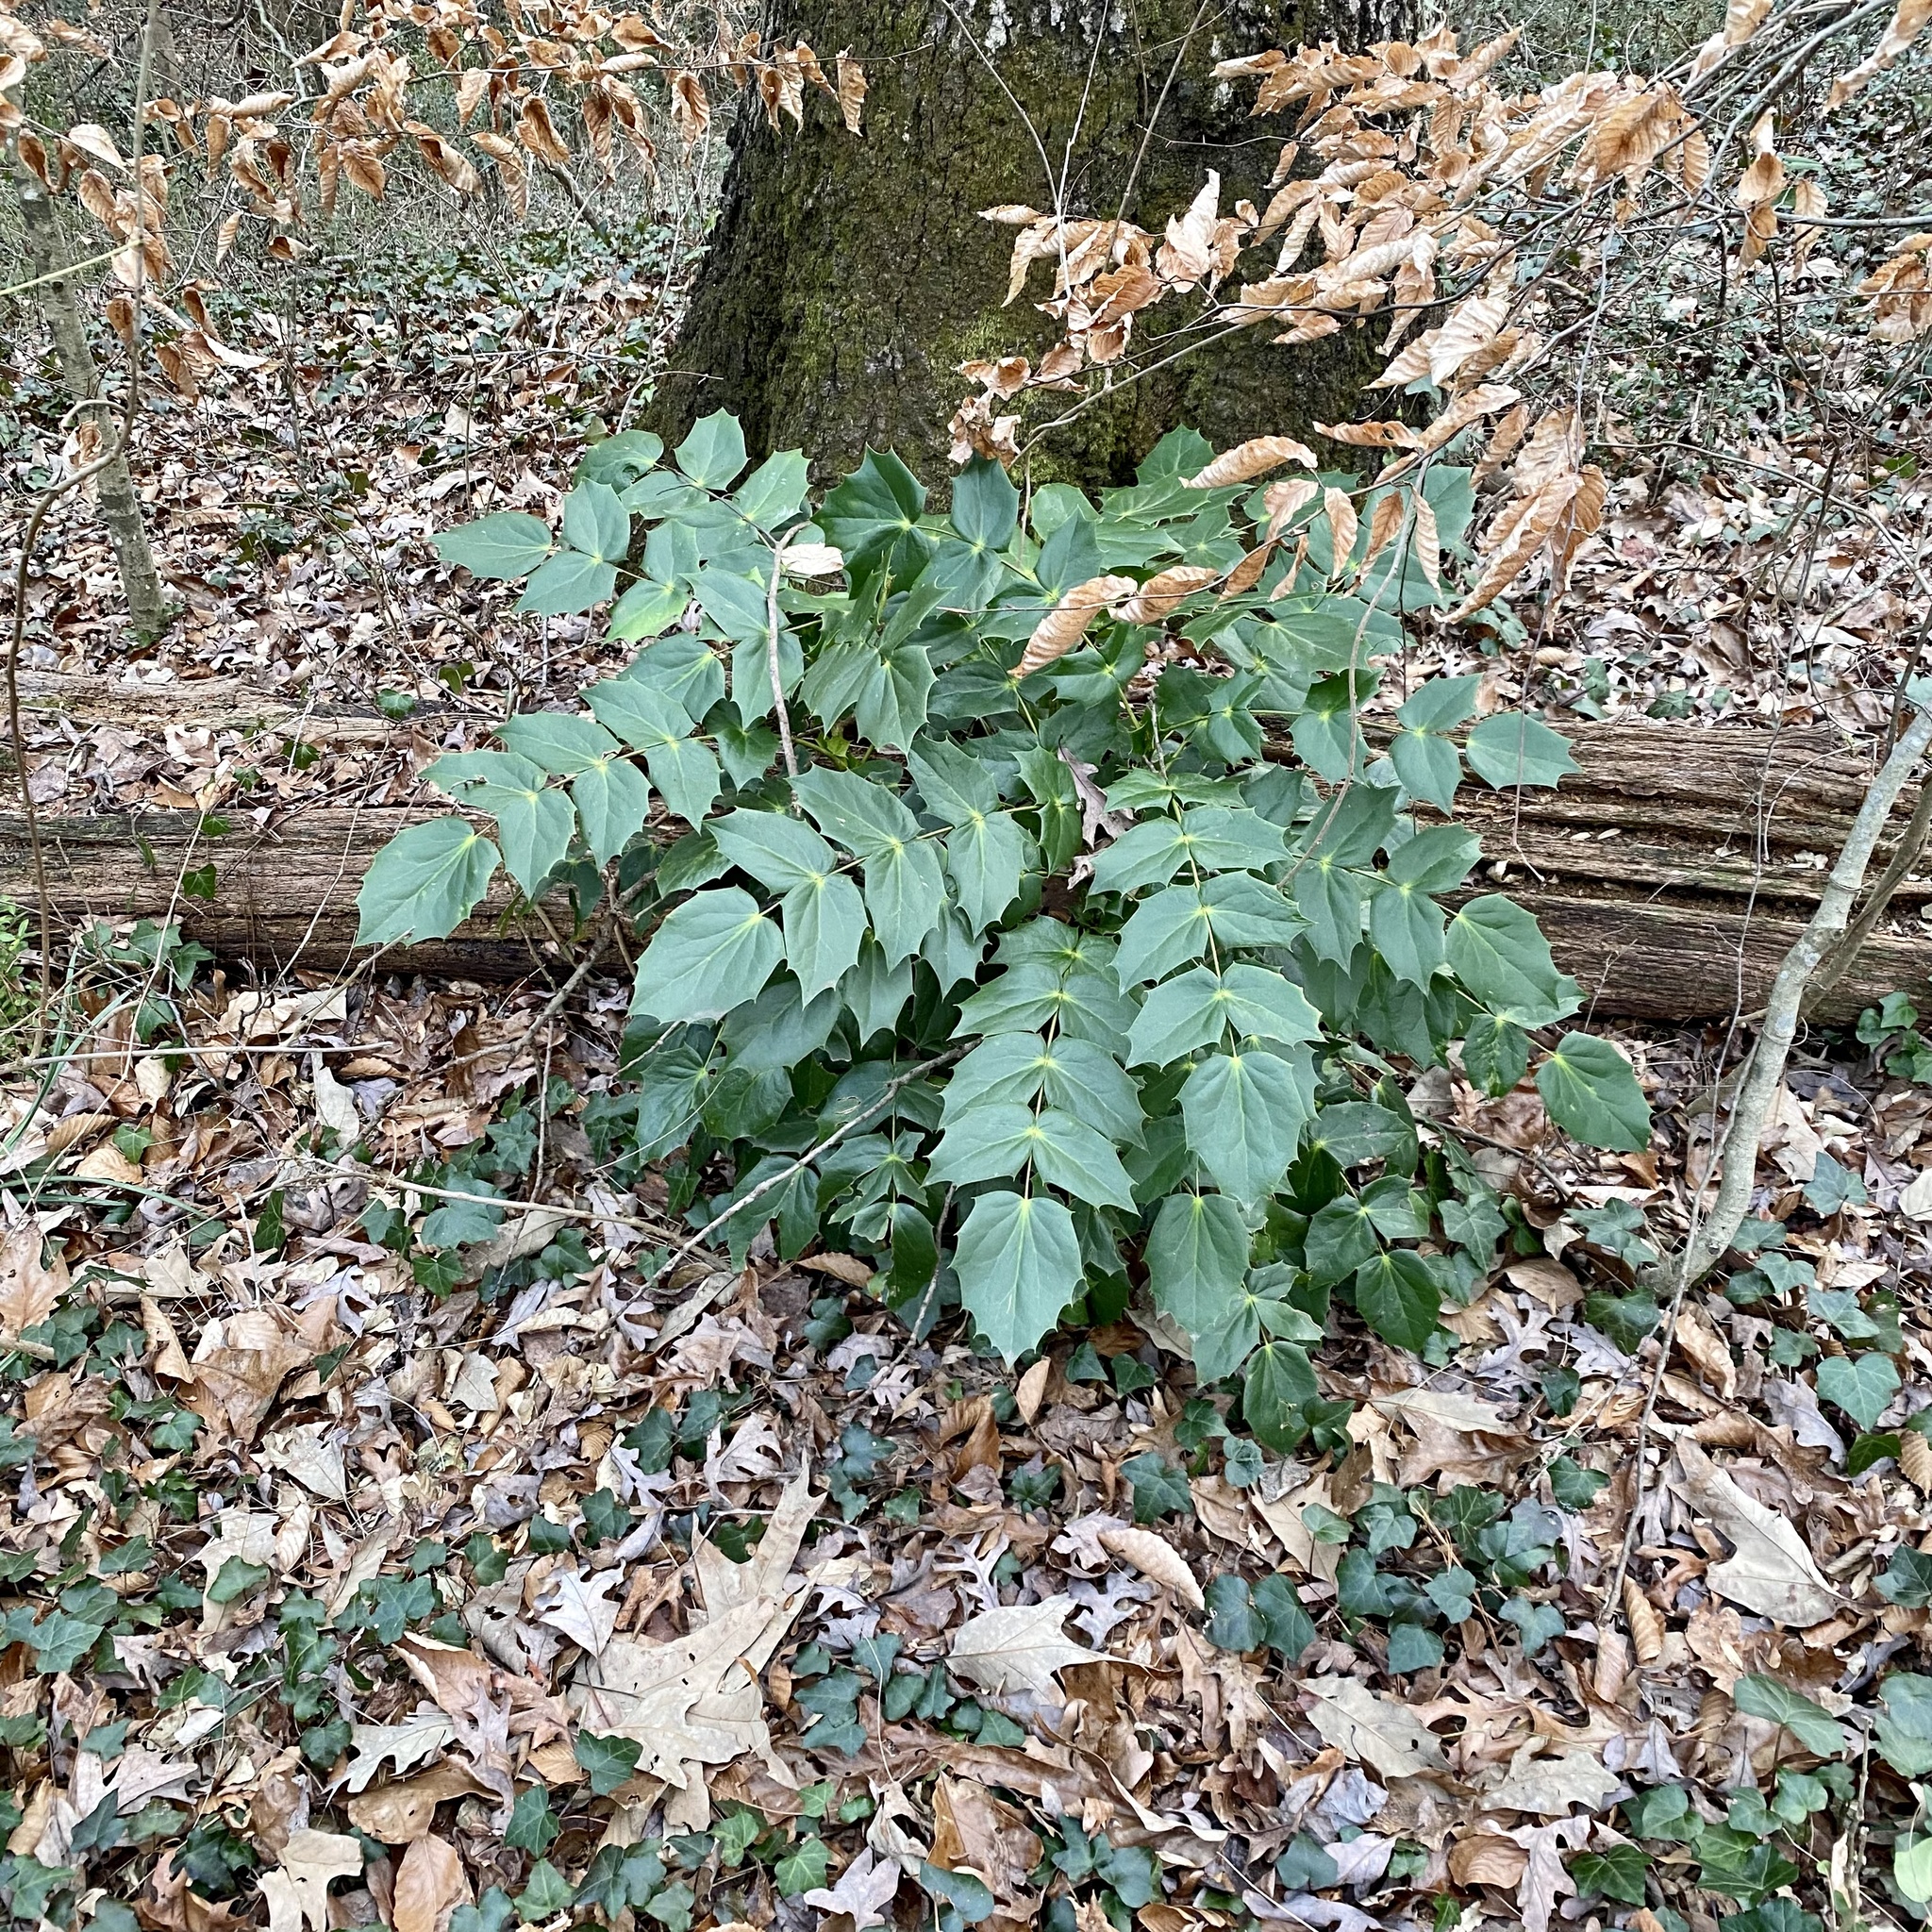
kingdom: Plantae
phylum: Tracheophyta
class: Magnoliopsida
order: Ranunculales
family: Berberidaceae
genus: Mahonia
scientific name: Mahonia bealei
